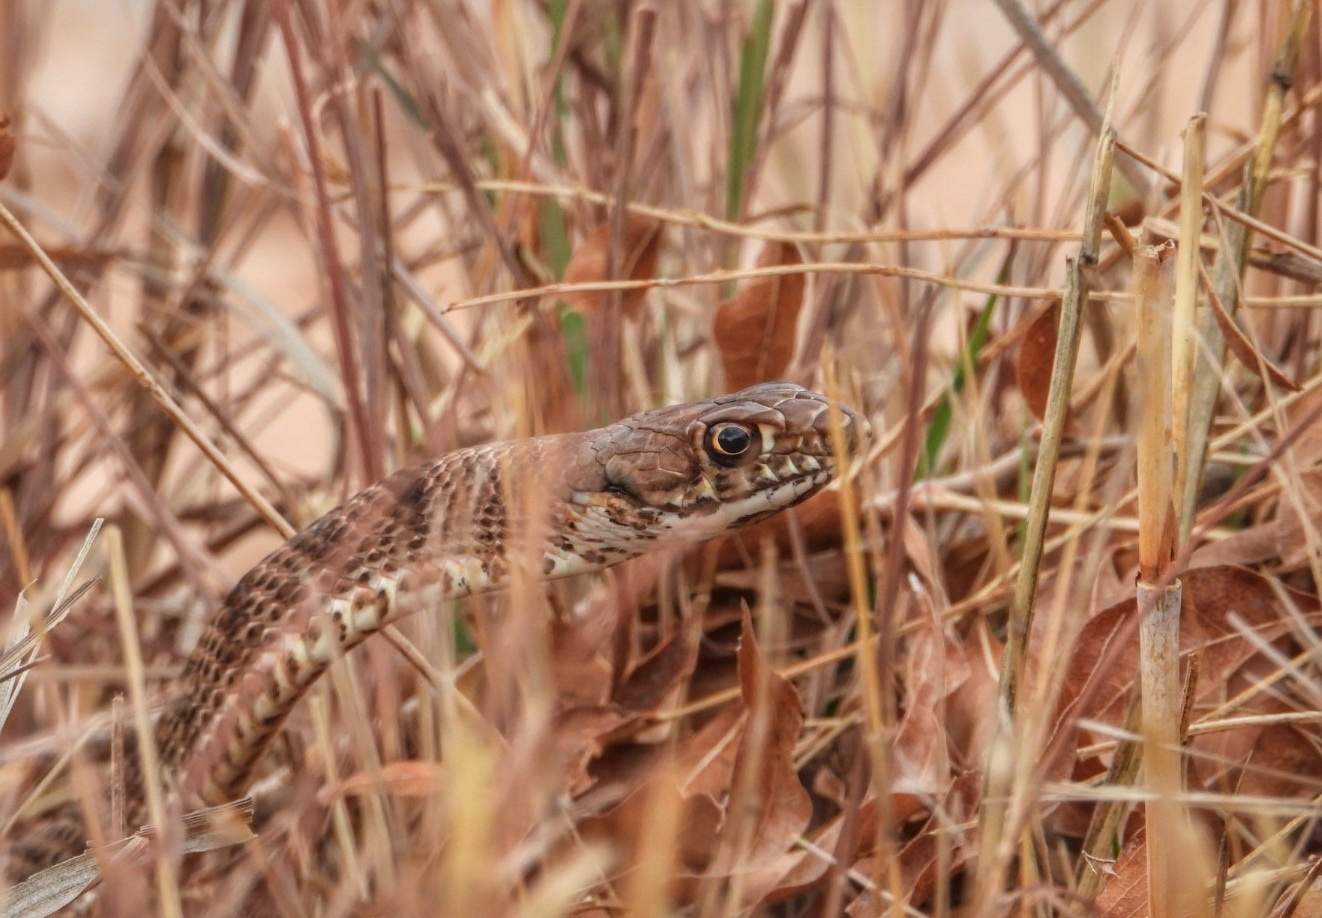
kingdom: Animalia
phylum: Chordata
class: Squamata
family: Colubridae
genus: Masticophis
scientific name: Masticophis flagellum
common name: Coachwhip
